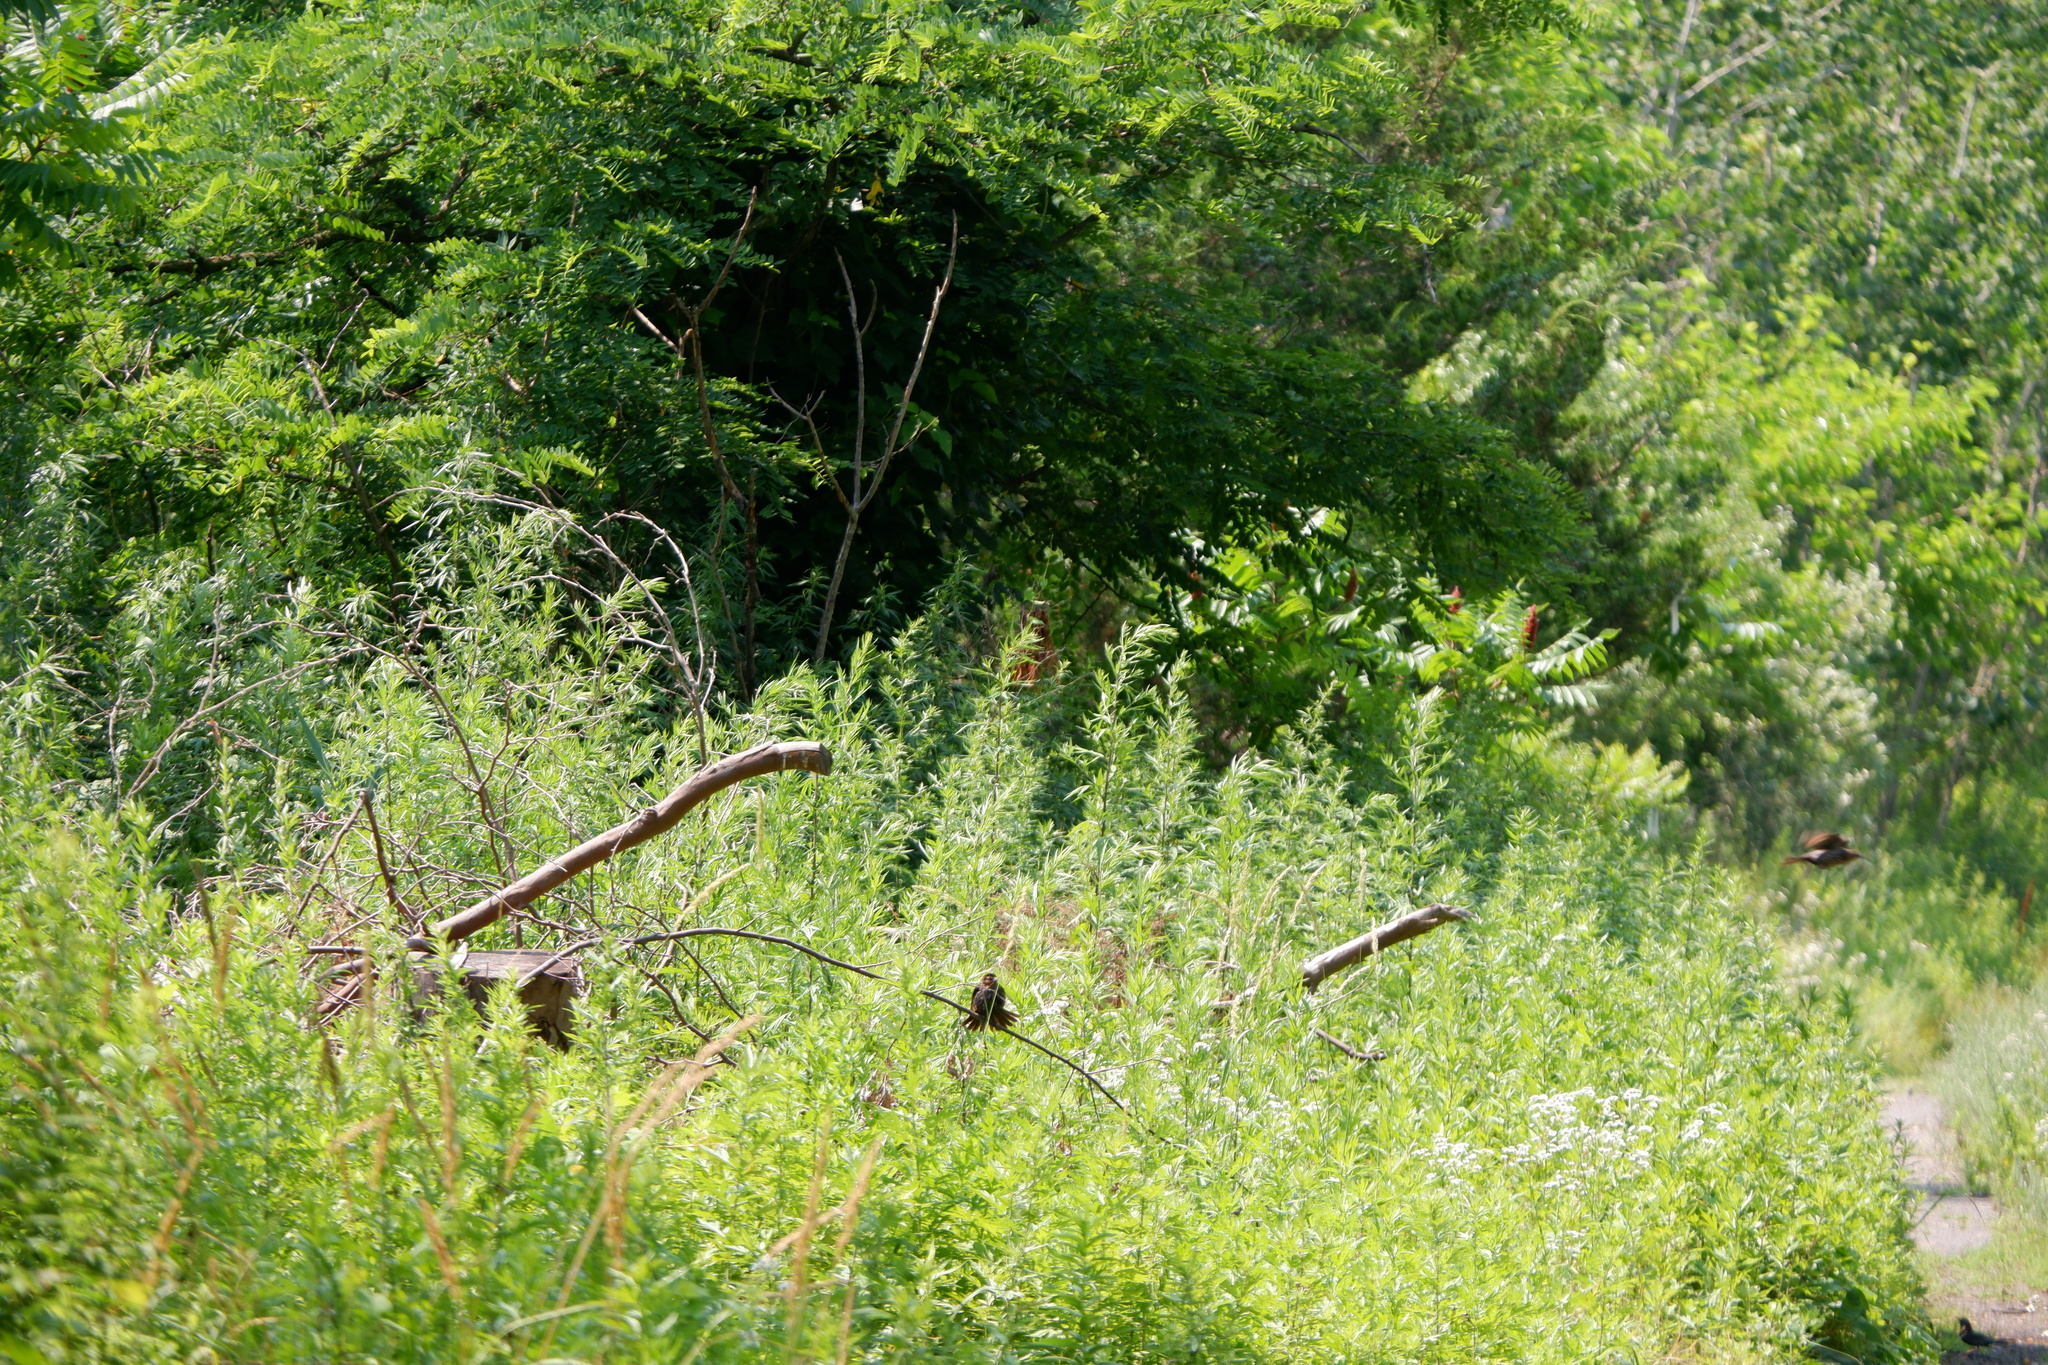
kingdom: Animalia
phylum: Chordata
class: Aves
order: Passeriformes
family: Icteridae
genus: Agelaius
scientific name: Agelaius phoeniceus
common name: Red-winged blackbird
